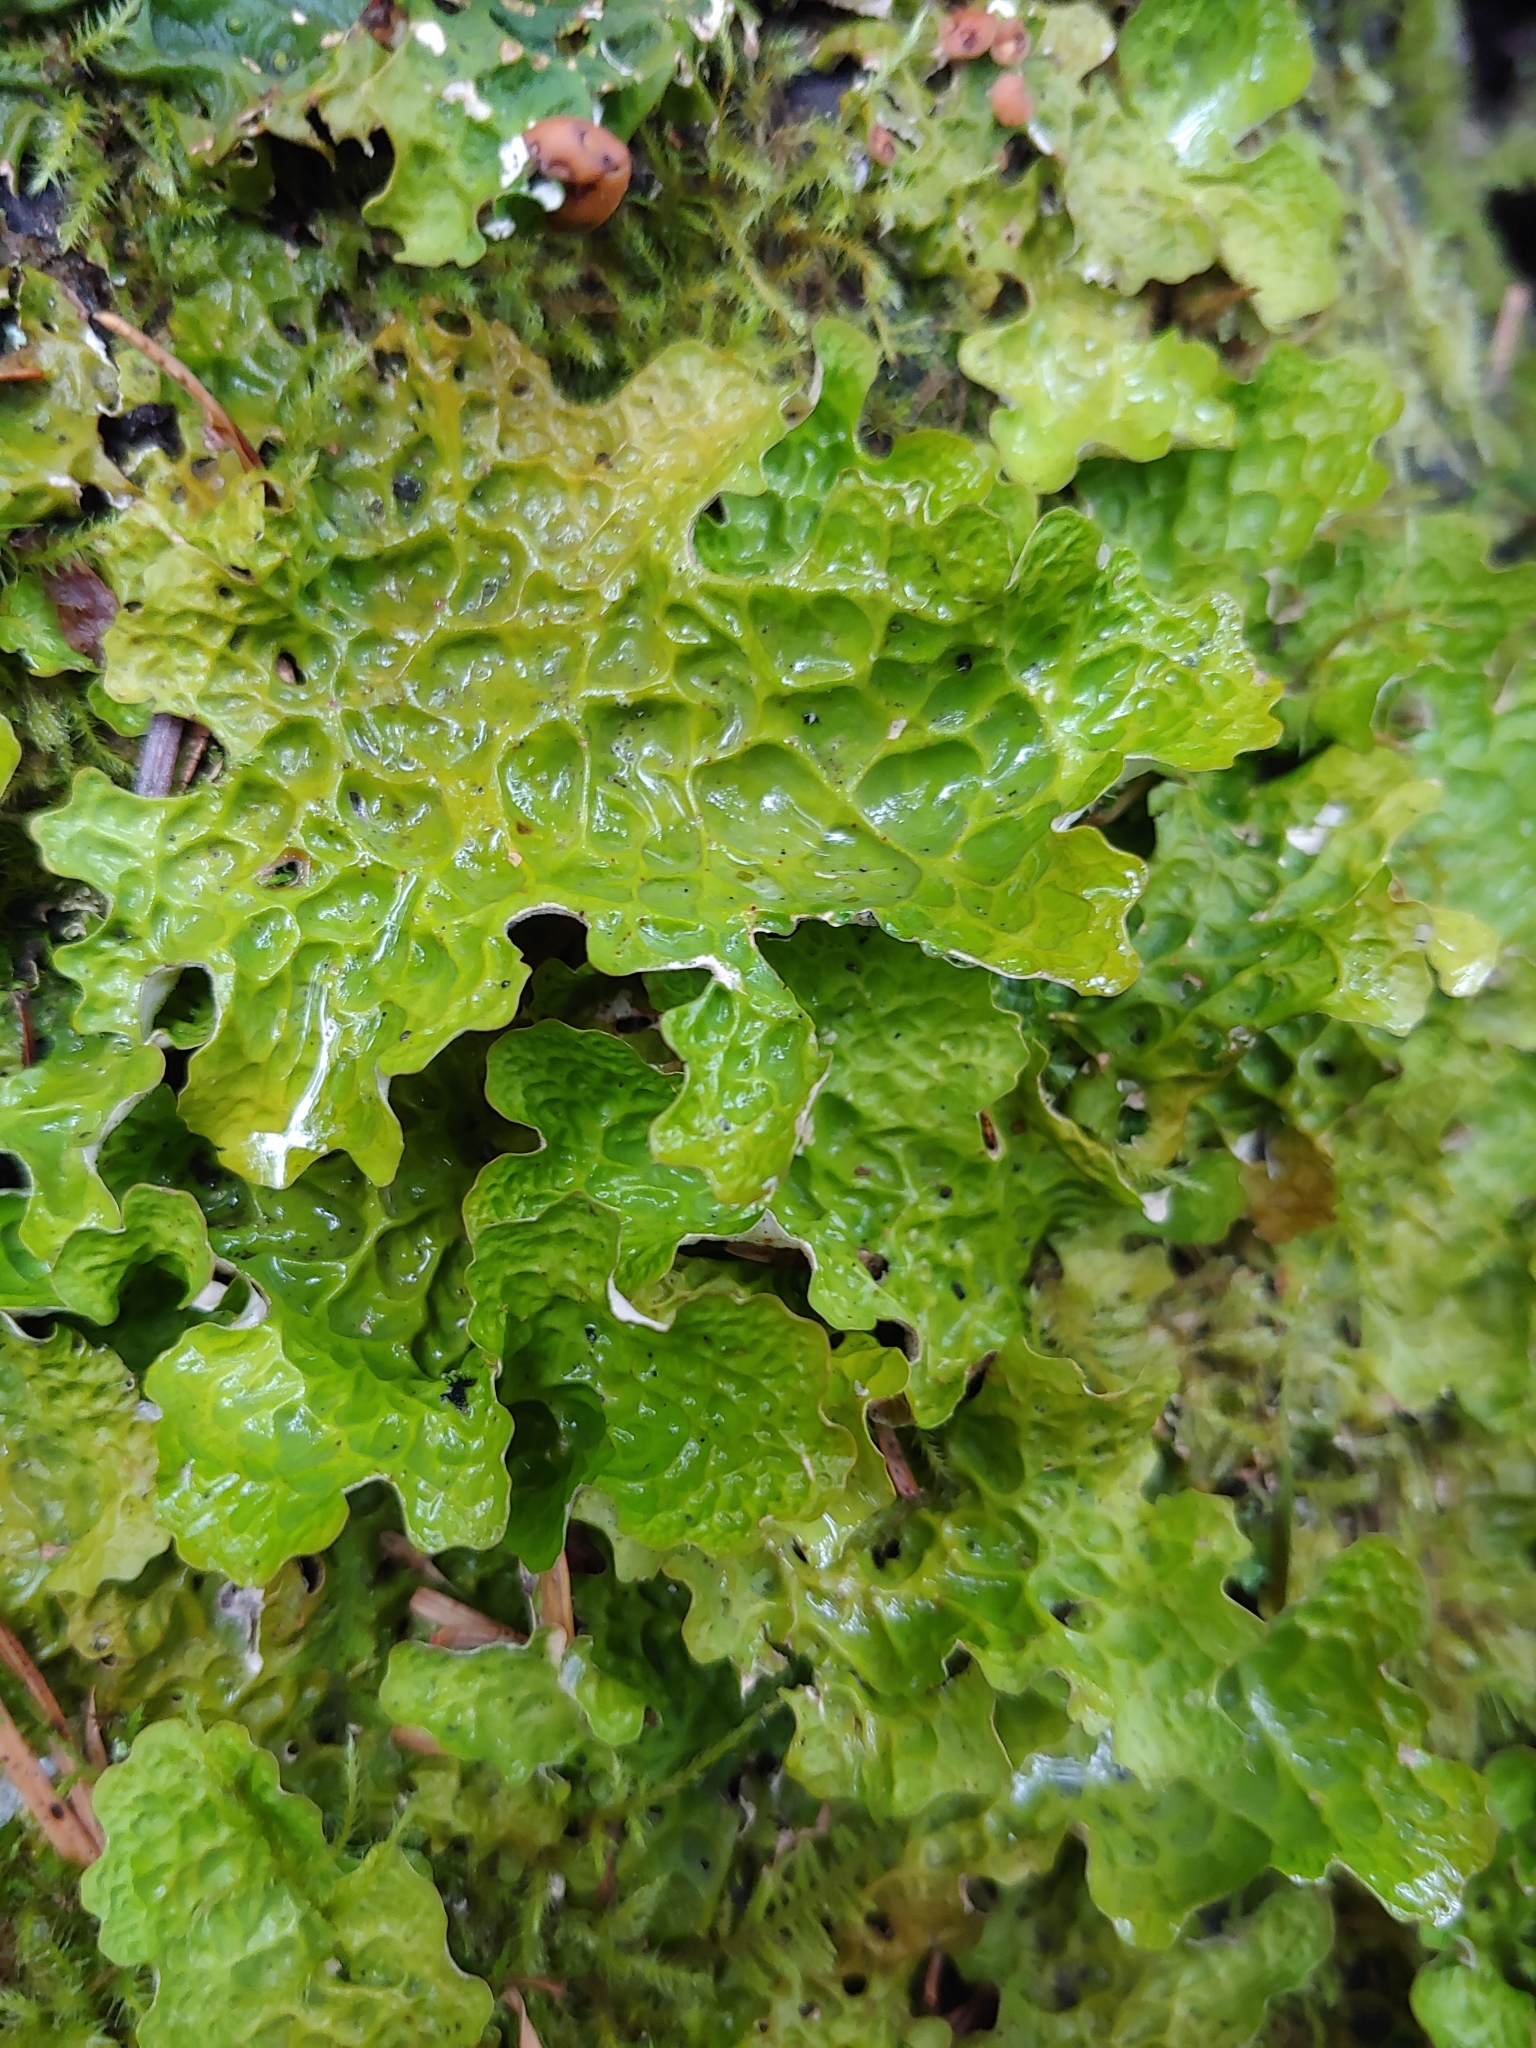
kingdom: Fungi
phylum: Ascomycota
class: Lecanoromycetes
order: Peltigerales
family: Lobariaceae
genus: Lobaria
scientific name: Lobaria pulmonaria
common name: Lungwort
